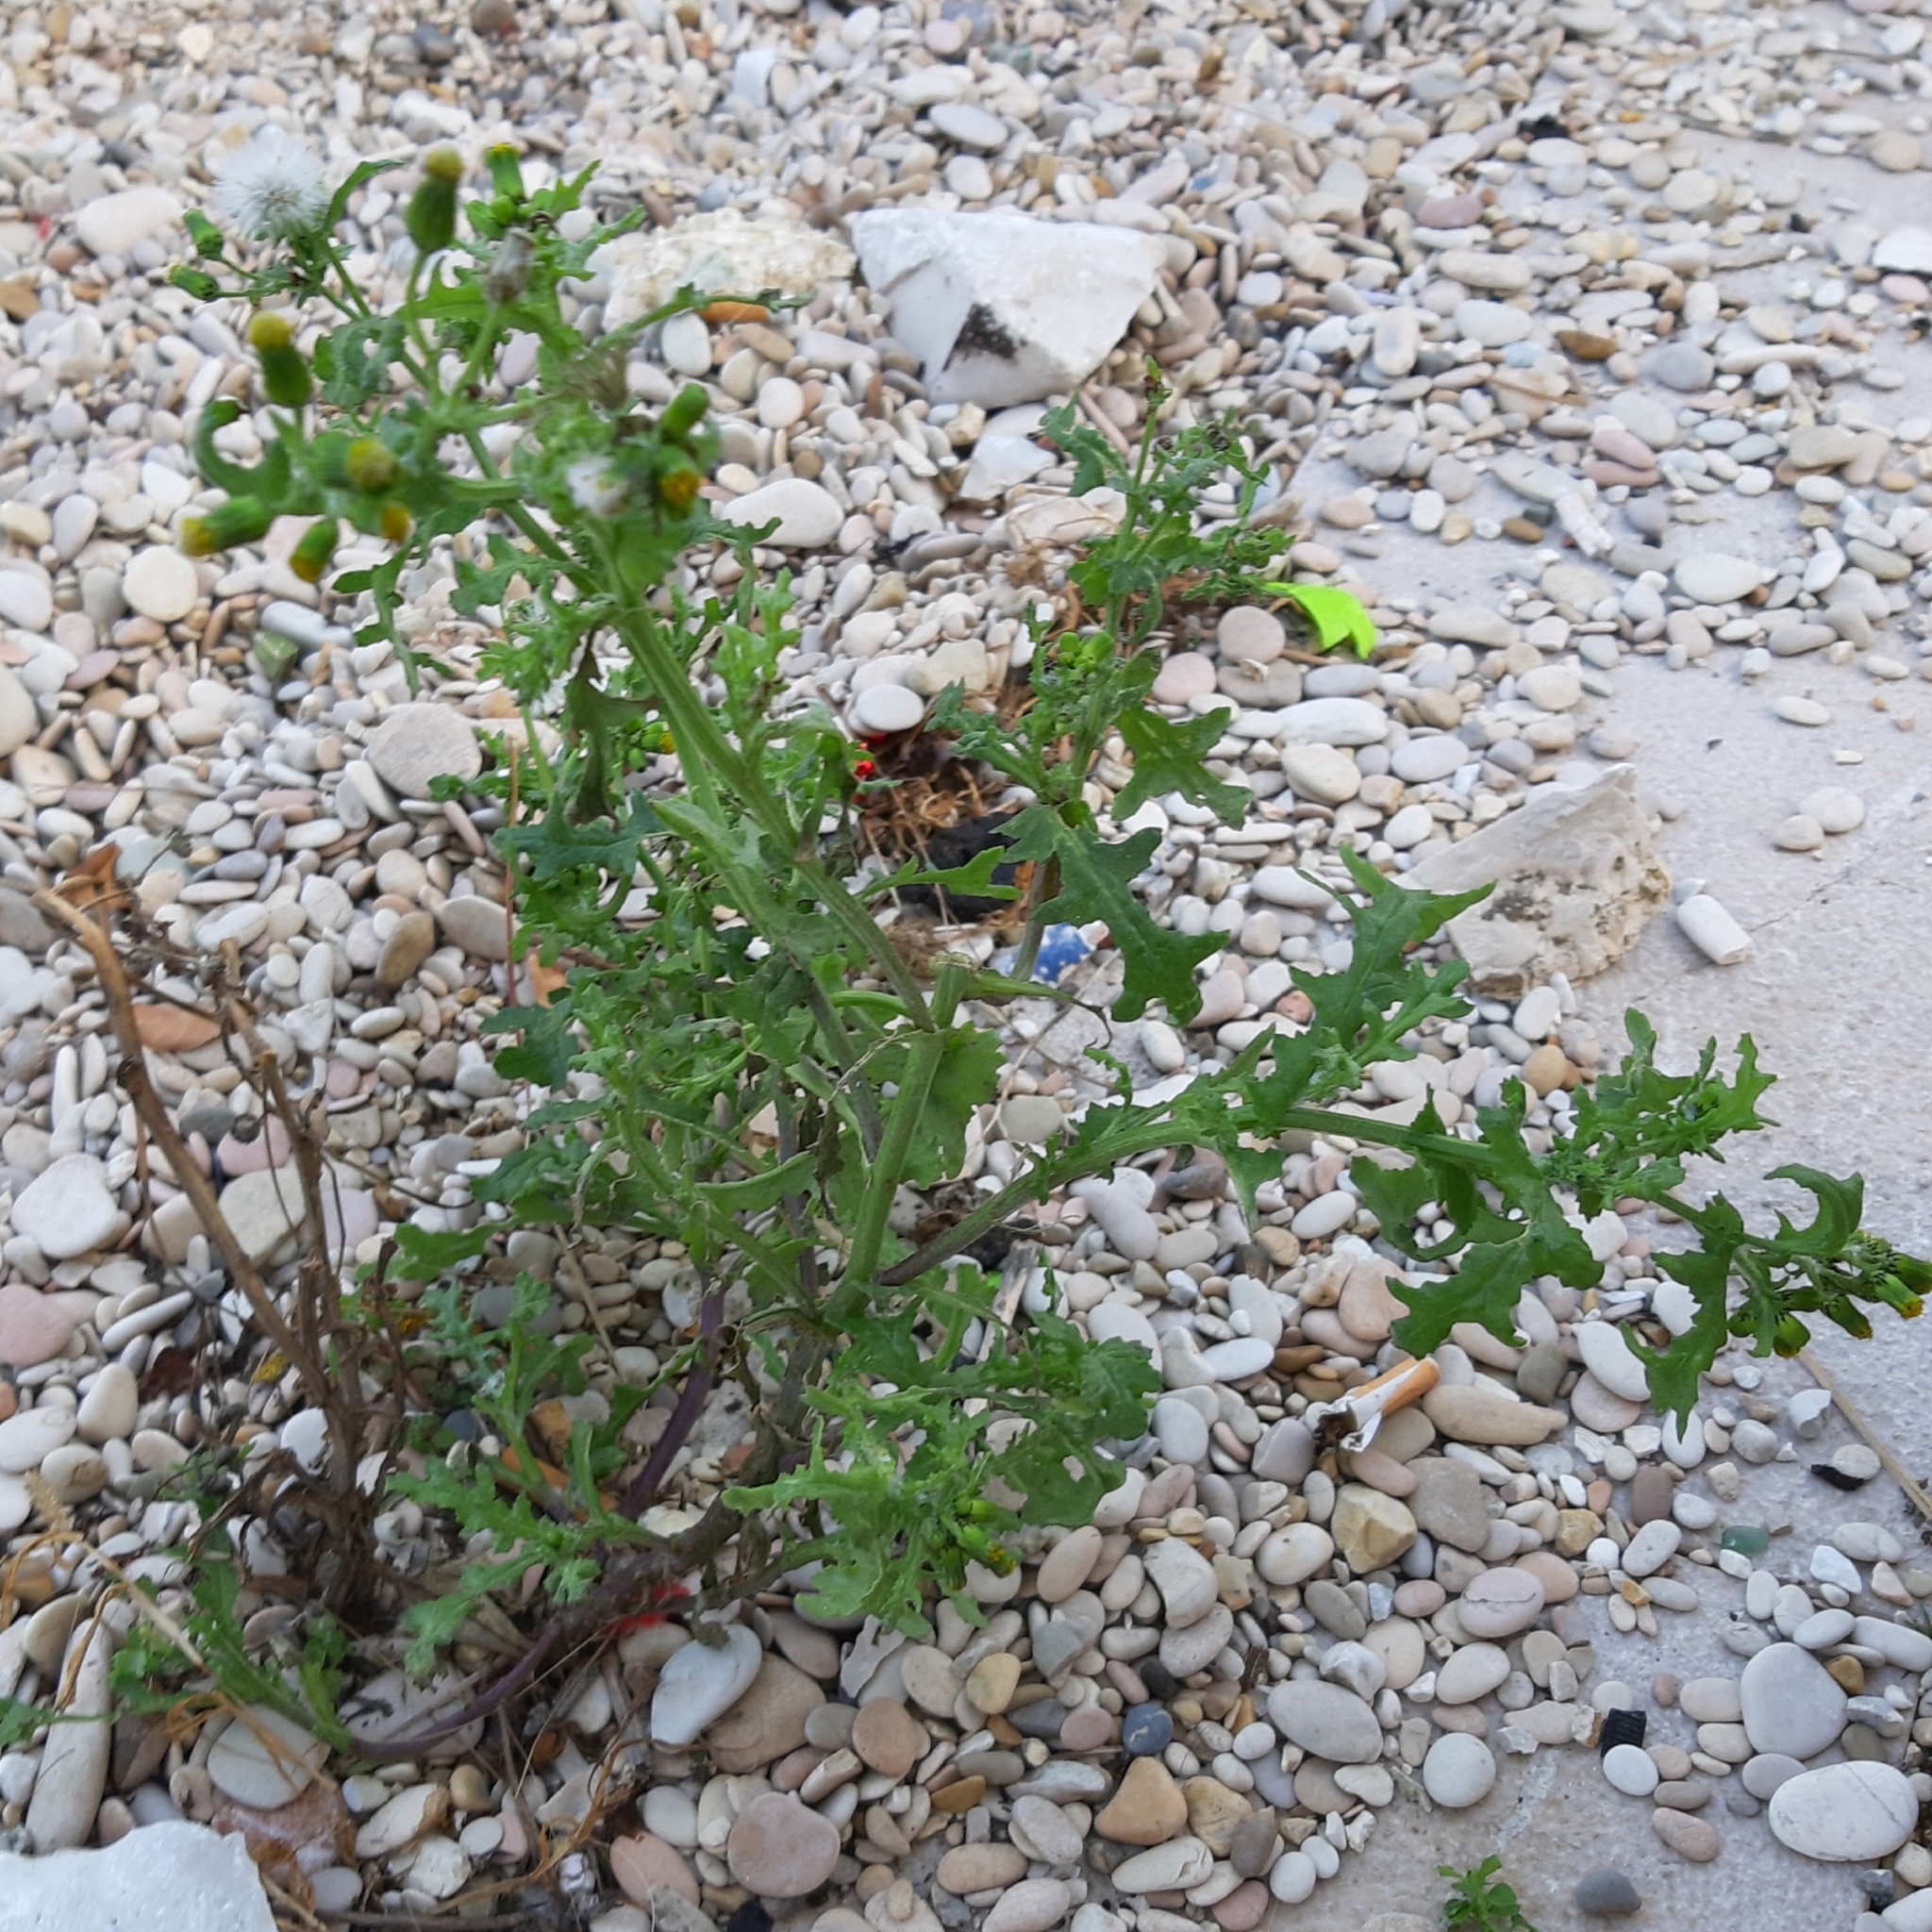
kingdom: Plantae
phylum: Tracheophyta
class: Magnoliopsida
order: Asterales
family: Asteraceae
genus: Senecio
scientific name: Senecio vulgaris
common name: Old-man-in-the-spring
